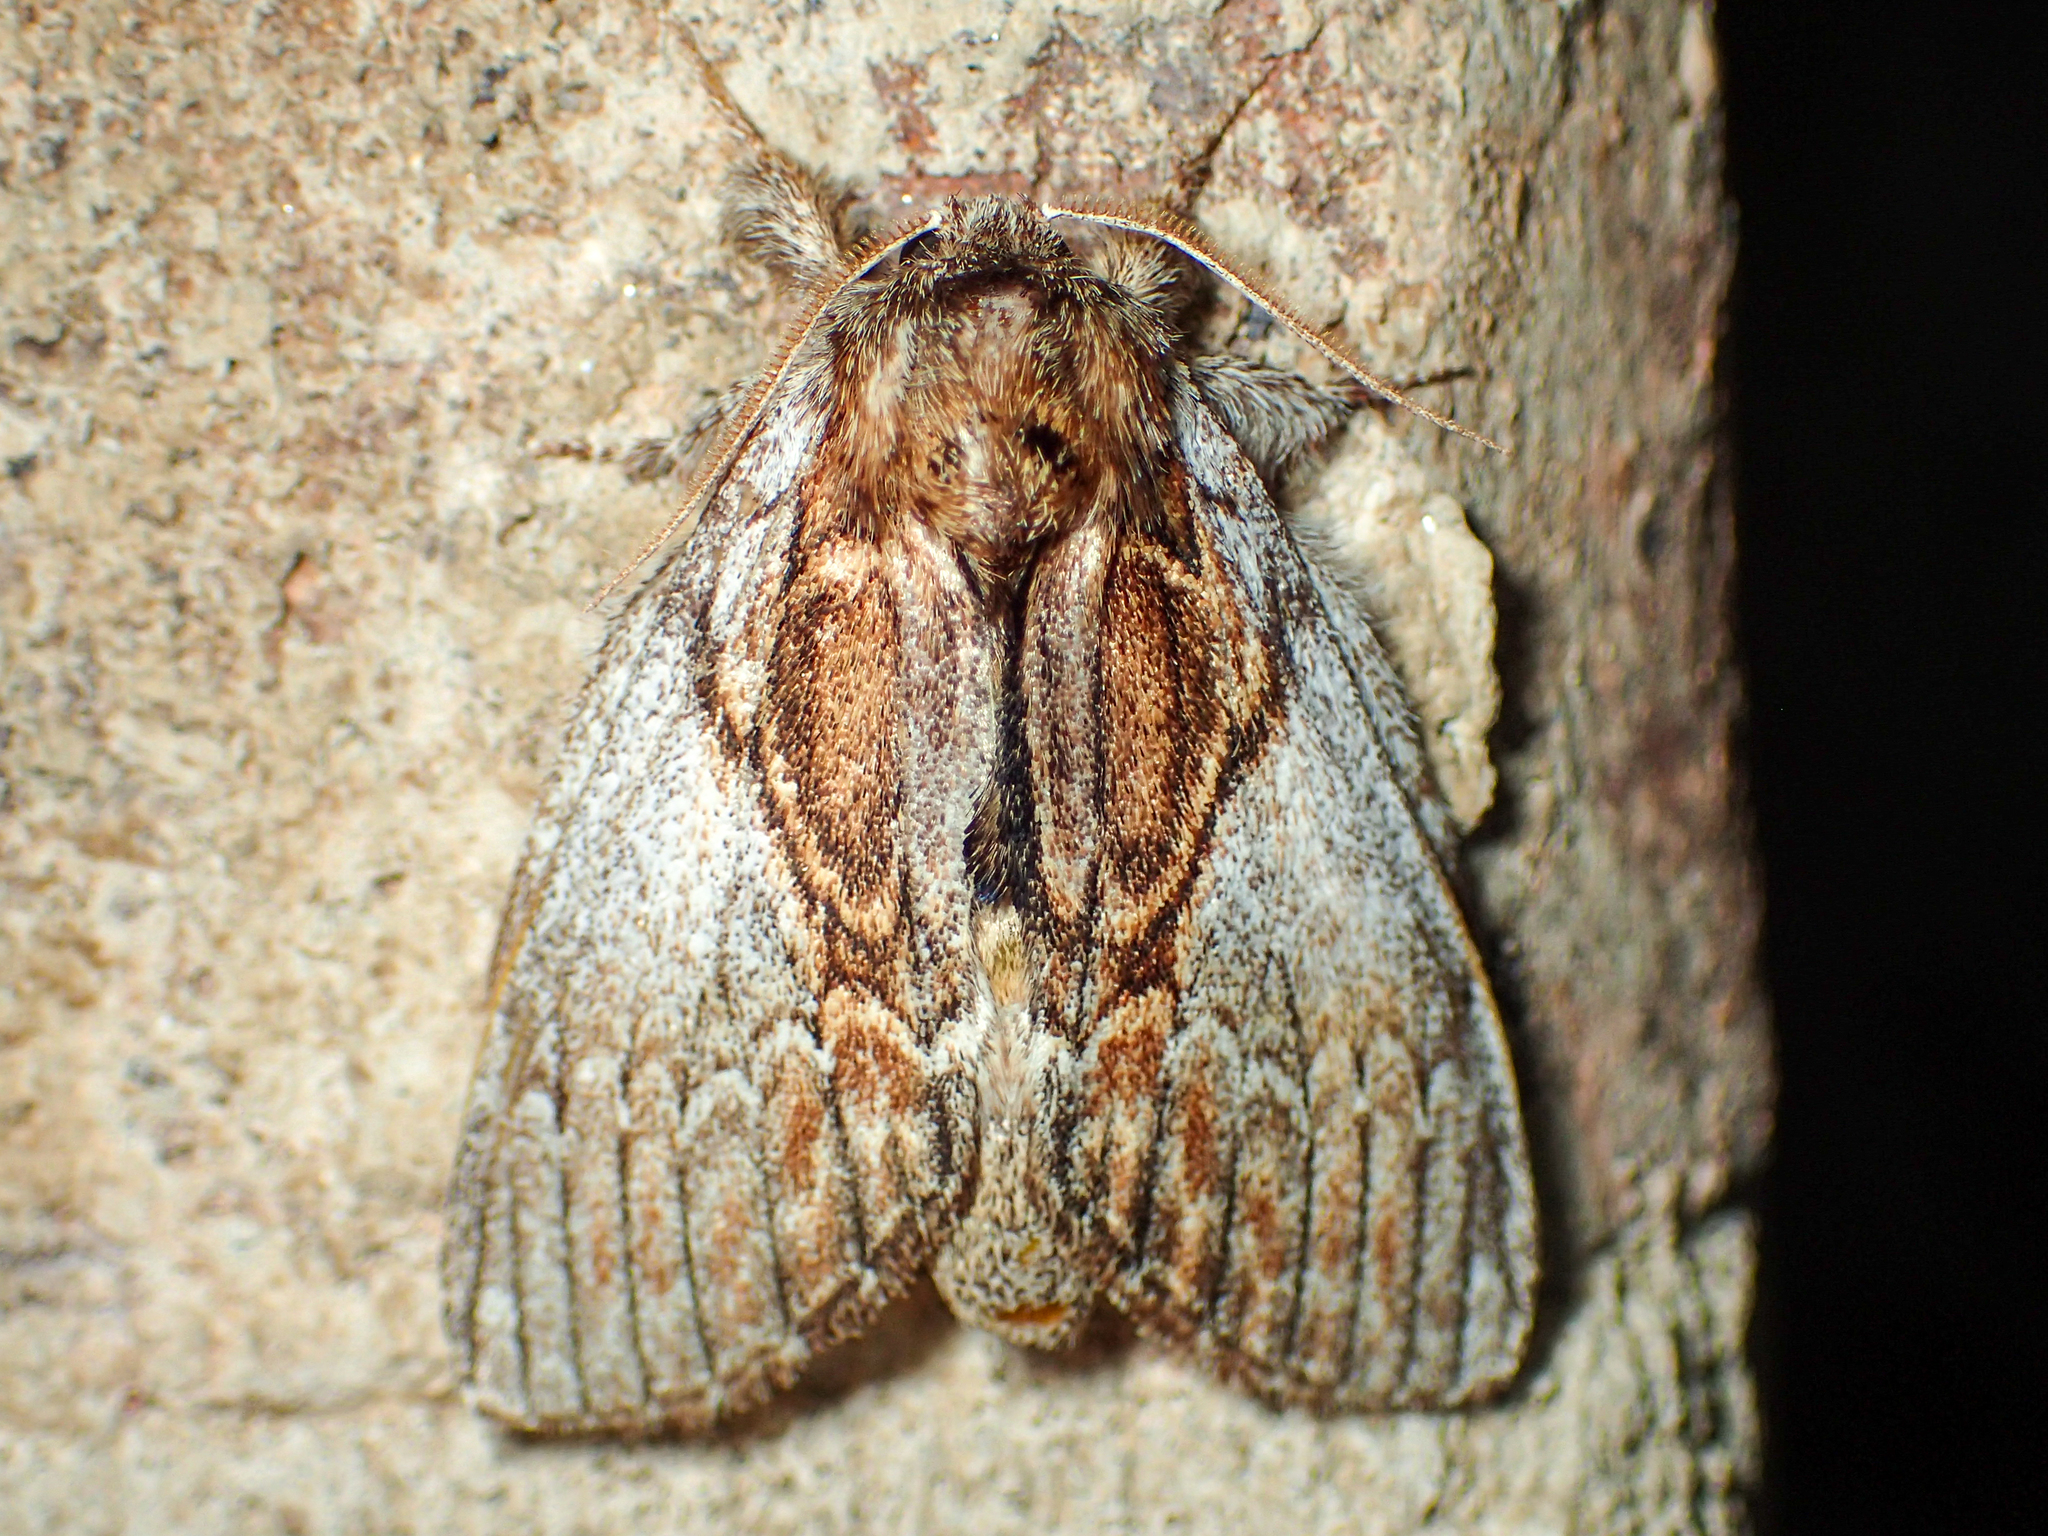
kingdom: Animalia
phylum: Arthropoda
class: Insecta
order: Lepidoptera
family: Notodontidae
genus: Peridea
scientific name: Peridea basitriens
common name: Oval-based prominent
